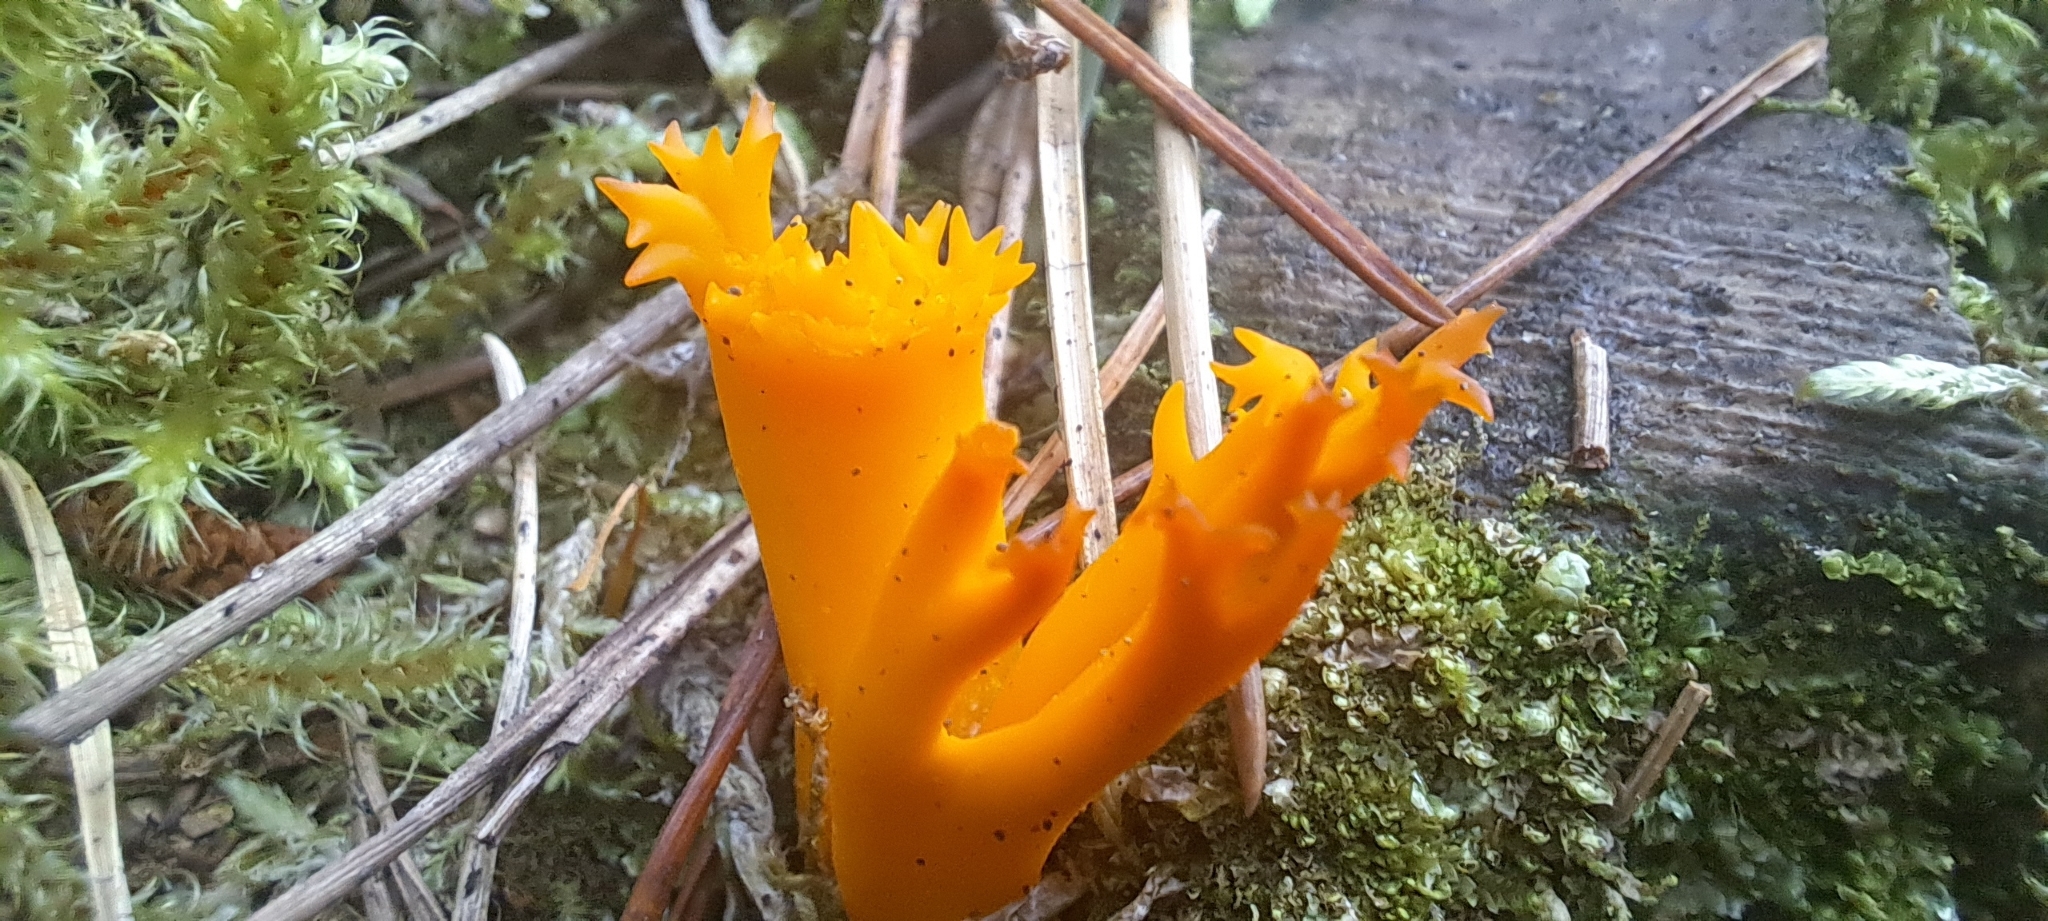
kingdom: Fungi
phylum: Basidiomycota
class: Dacrymycetes
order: Dacrymycetales
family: Dacrymycetaceae
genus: Calocera
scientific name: Calocera viscosa
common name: Yellow stagshorn
